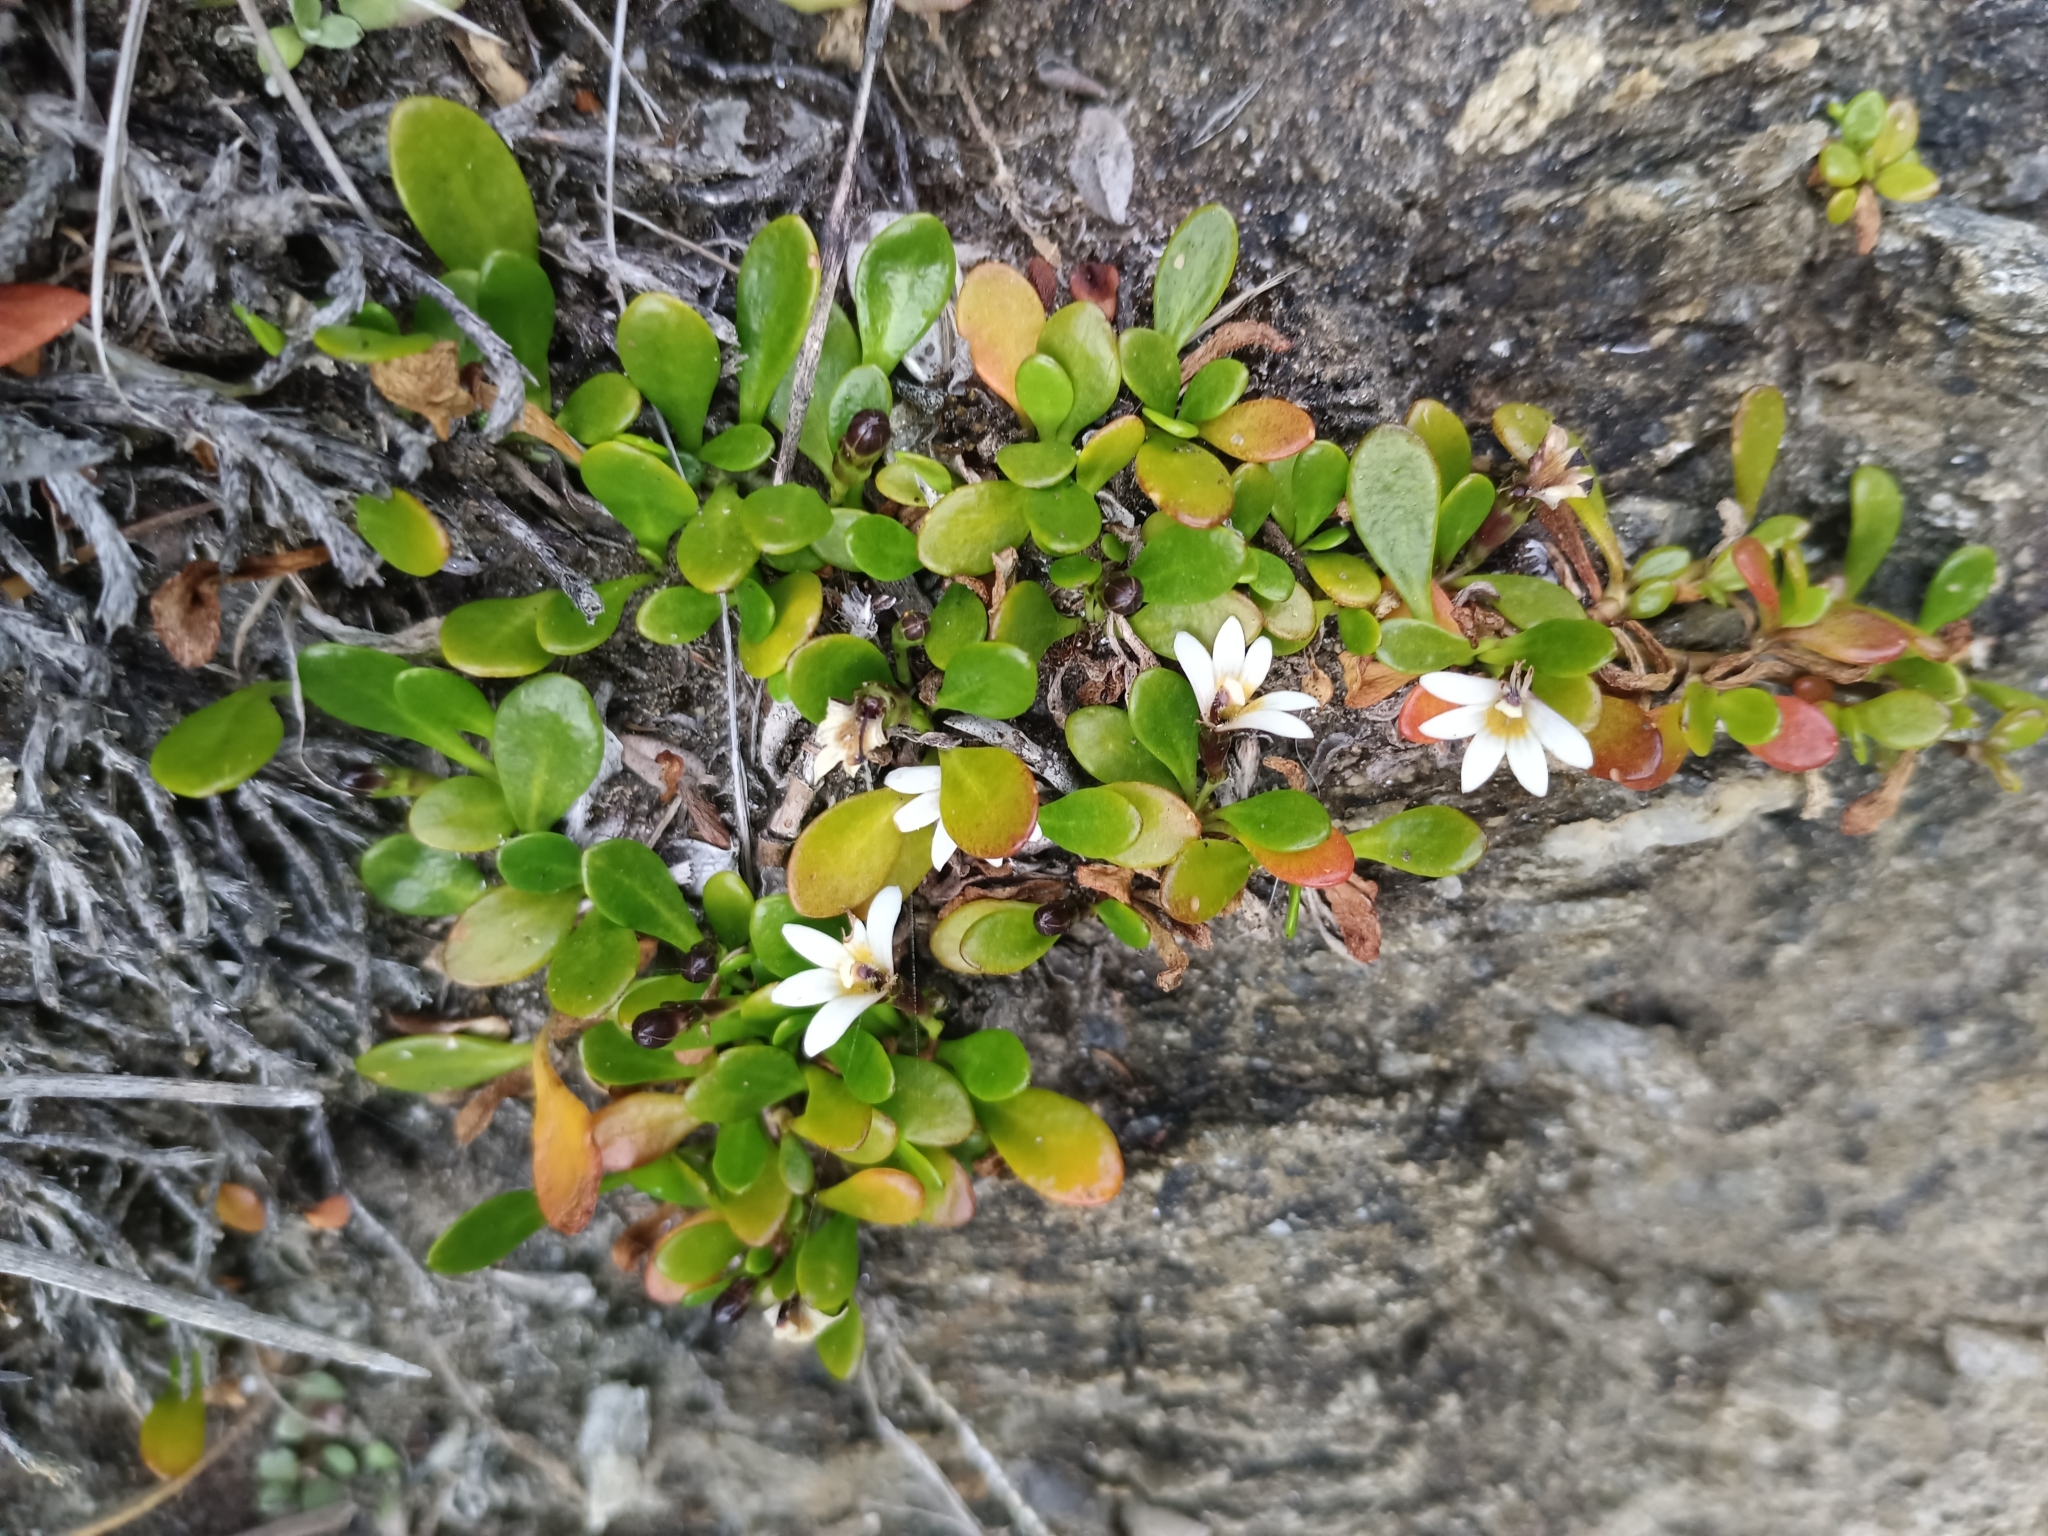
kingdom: Plantae
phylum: Tracheophyta
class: Magnoliopsida
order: Asterales
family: Goodeniaceae
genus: Goodenia
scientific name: Goodenia radicans
